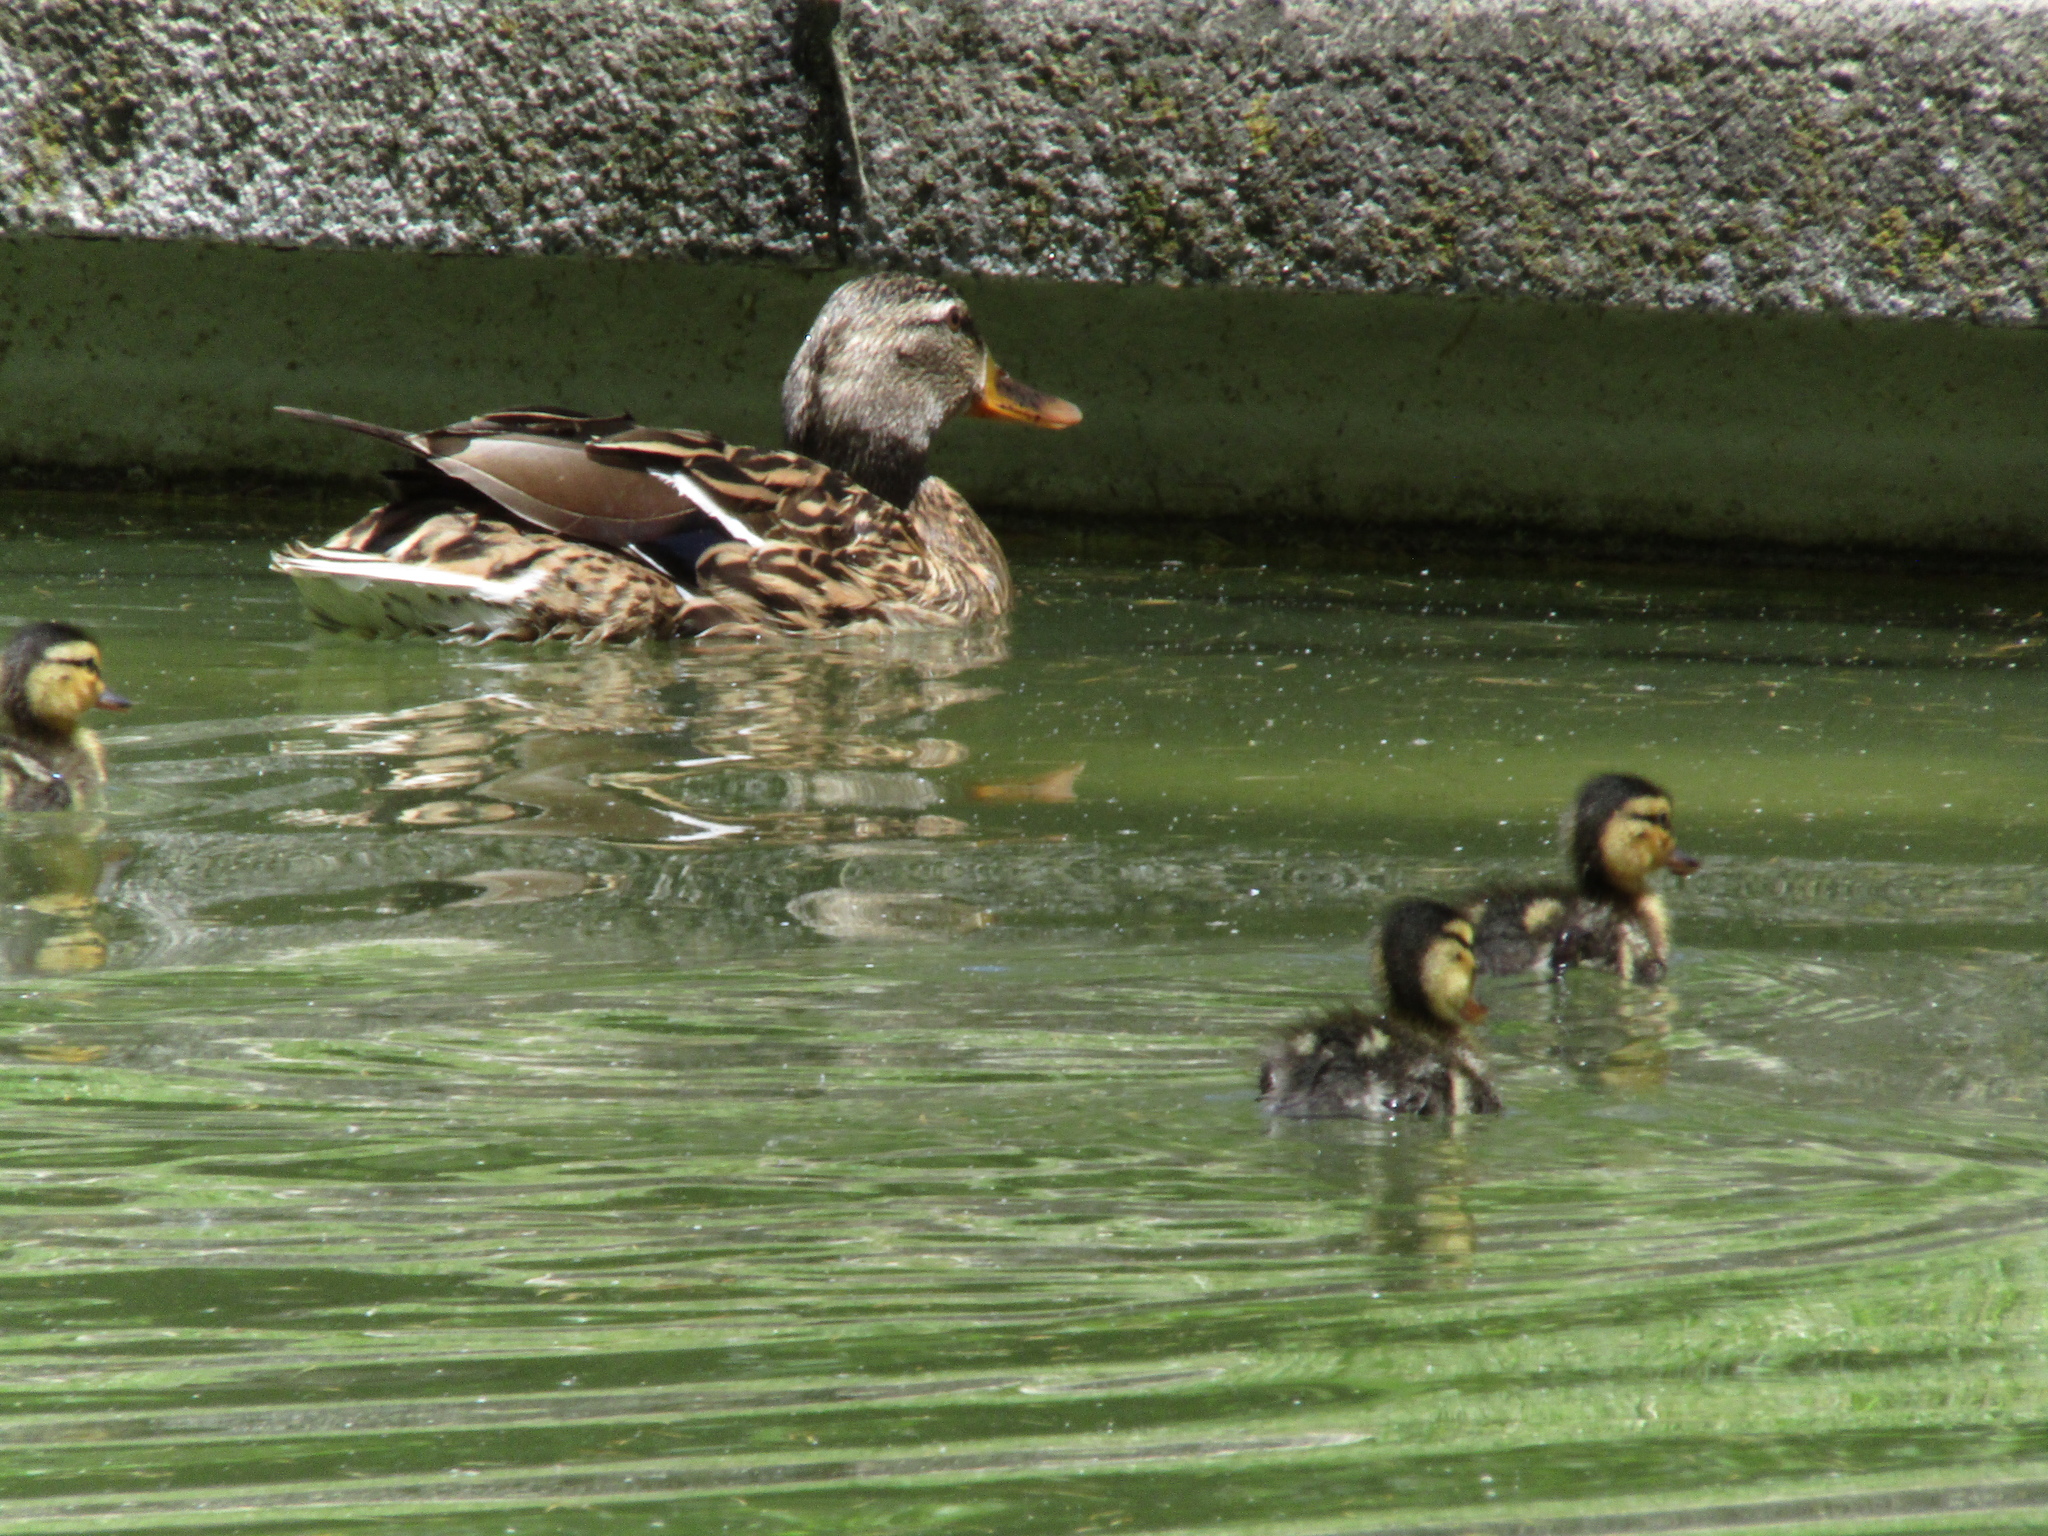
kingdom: Animalia
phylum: Chordata
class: Aves
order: Anseriformes
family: Anatidae
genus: Anas
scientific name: Anas platyrhynchos
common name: Mallard
